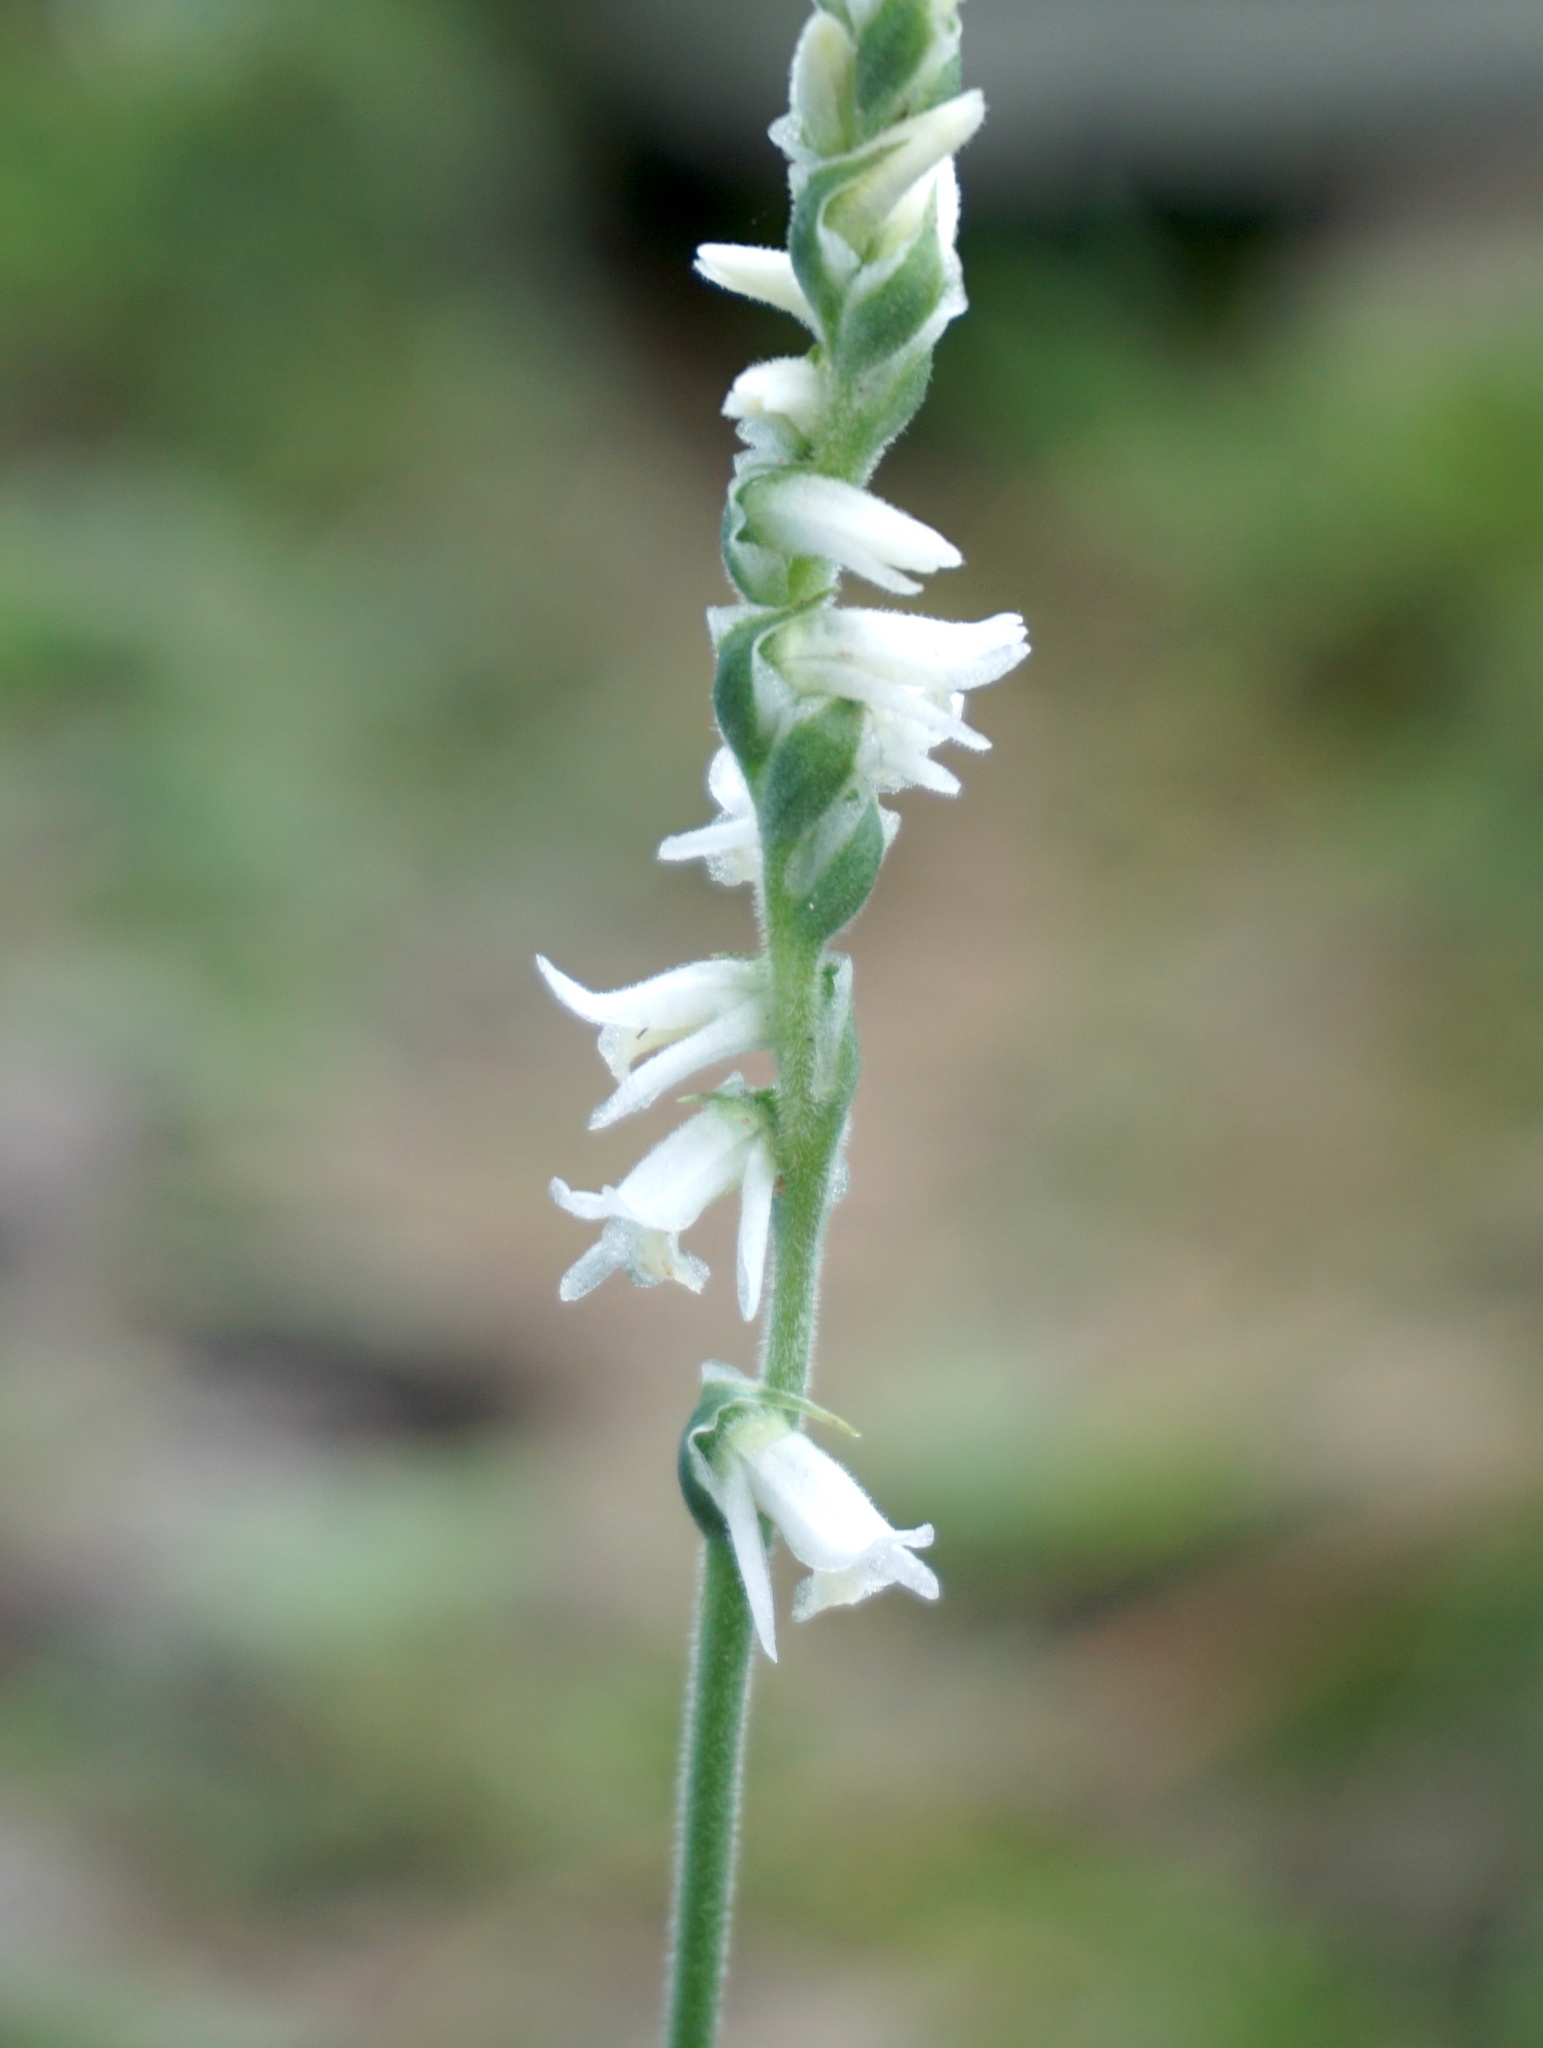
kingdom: Plantae
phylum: Tracheophyta
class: Liliopsida
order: Asparagales
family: Orchidaceae
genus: Spiranthes
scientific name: Spiranthes vernalis
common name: Spring ladies'-tresses
